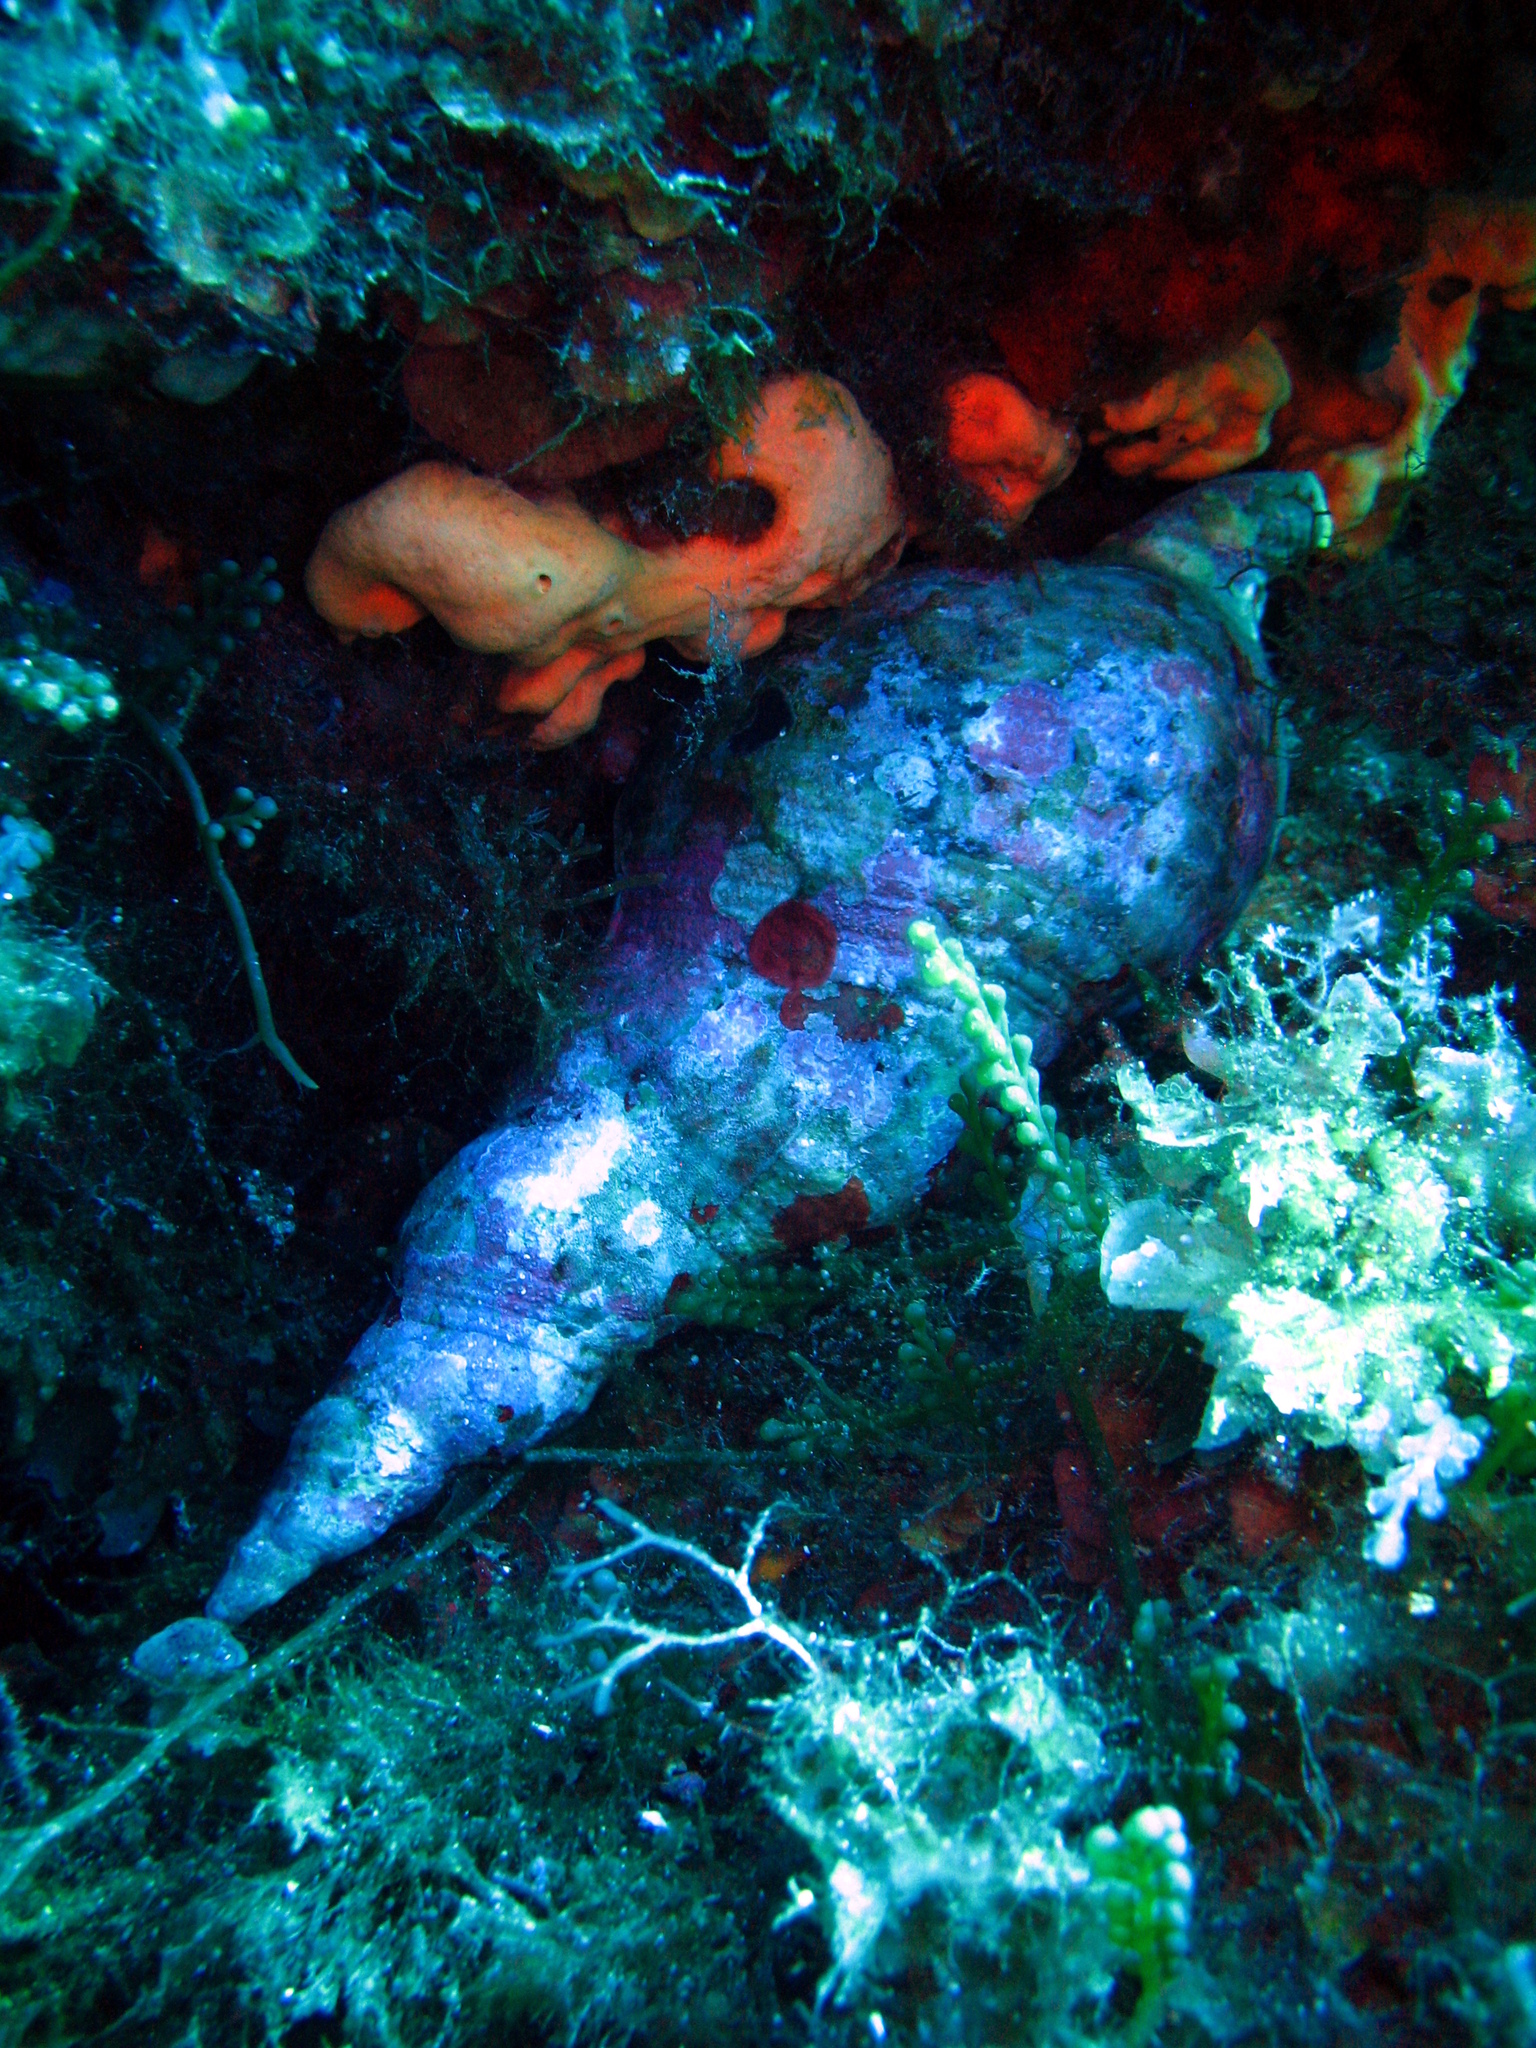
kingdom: Animalia
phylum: Mollusca
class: Gastropoda
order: Littorinimorpha
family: Charoniidae
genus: Charonia
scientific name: Charonia variegata
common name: Atlantic triton
